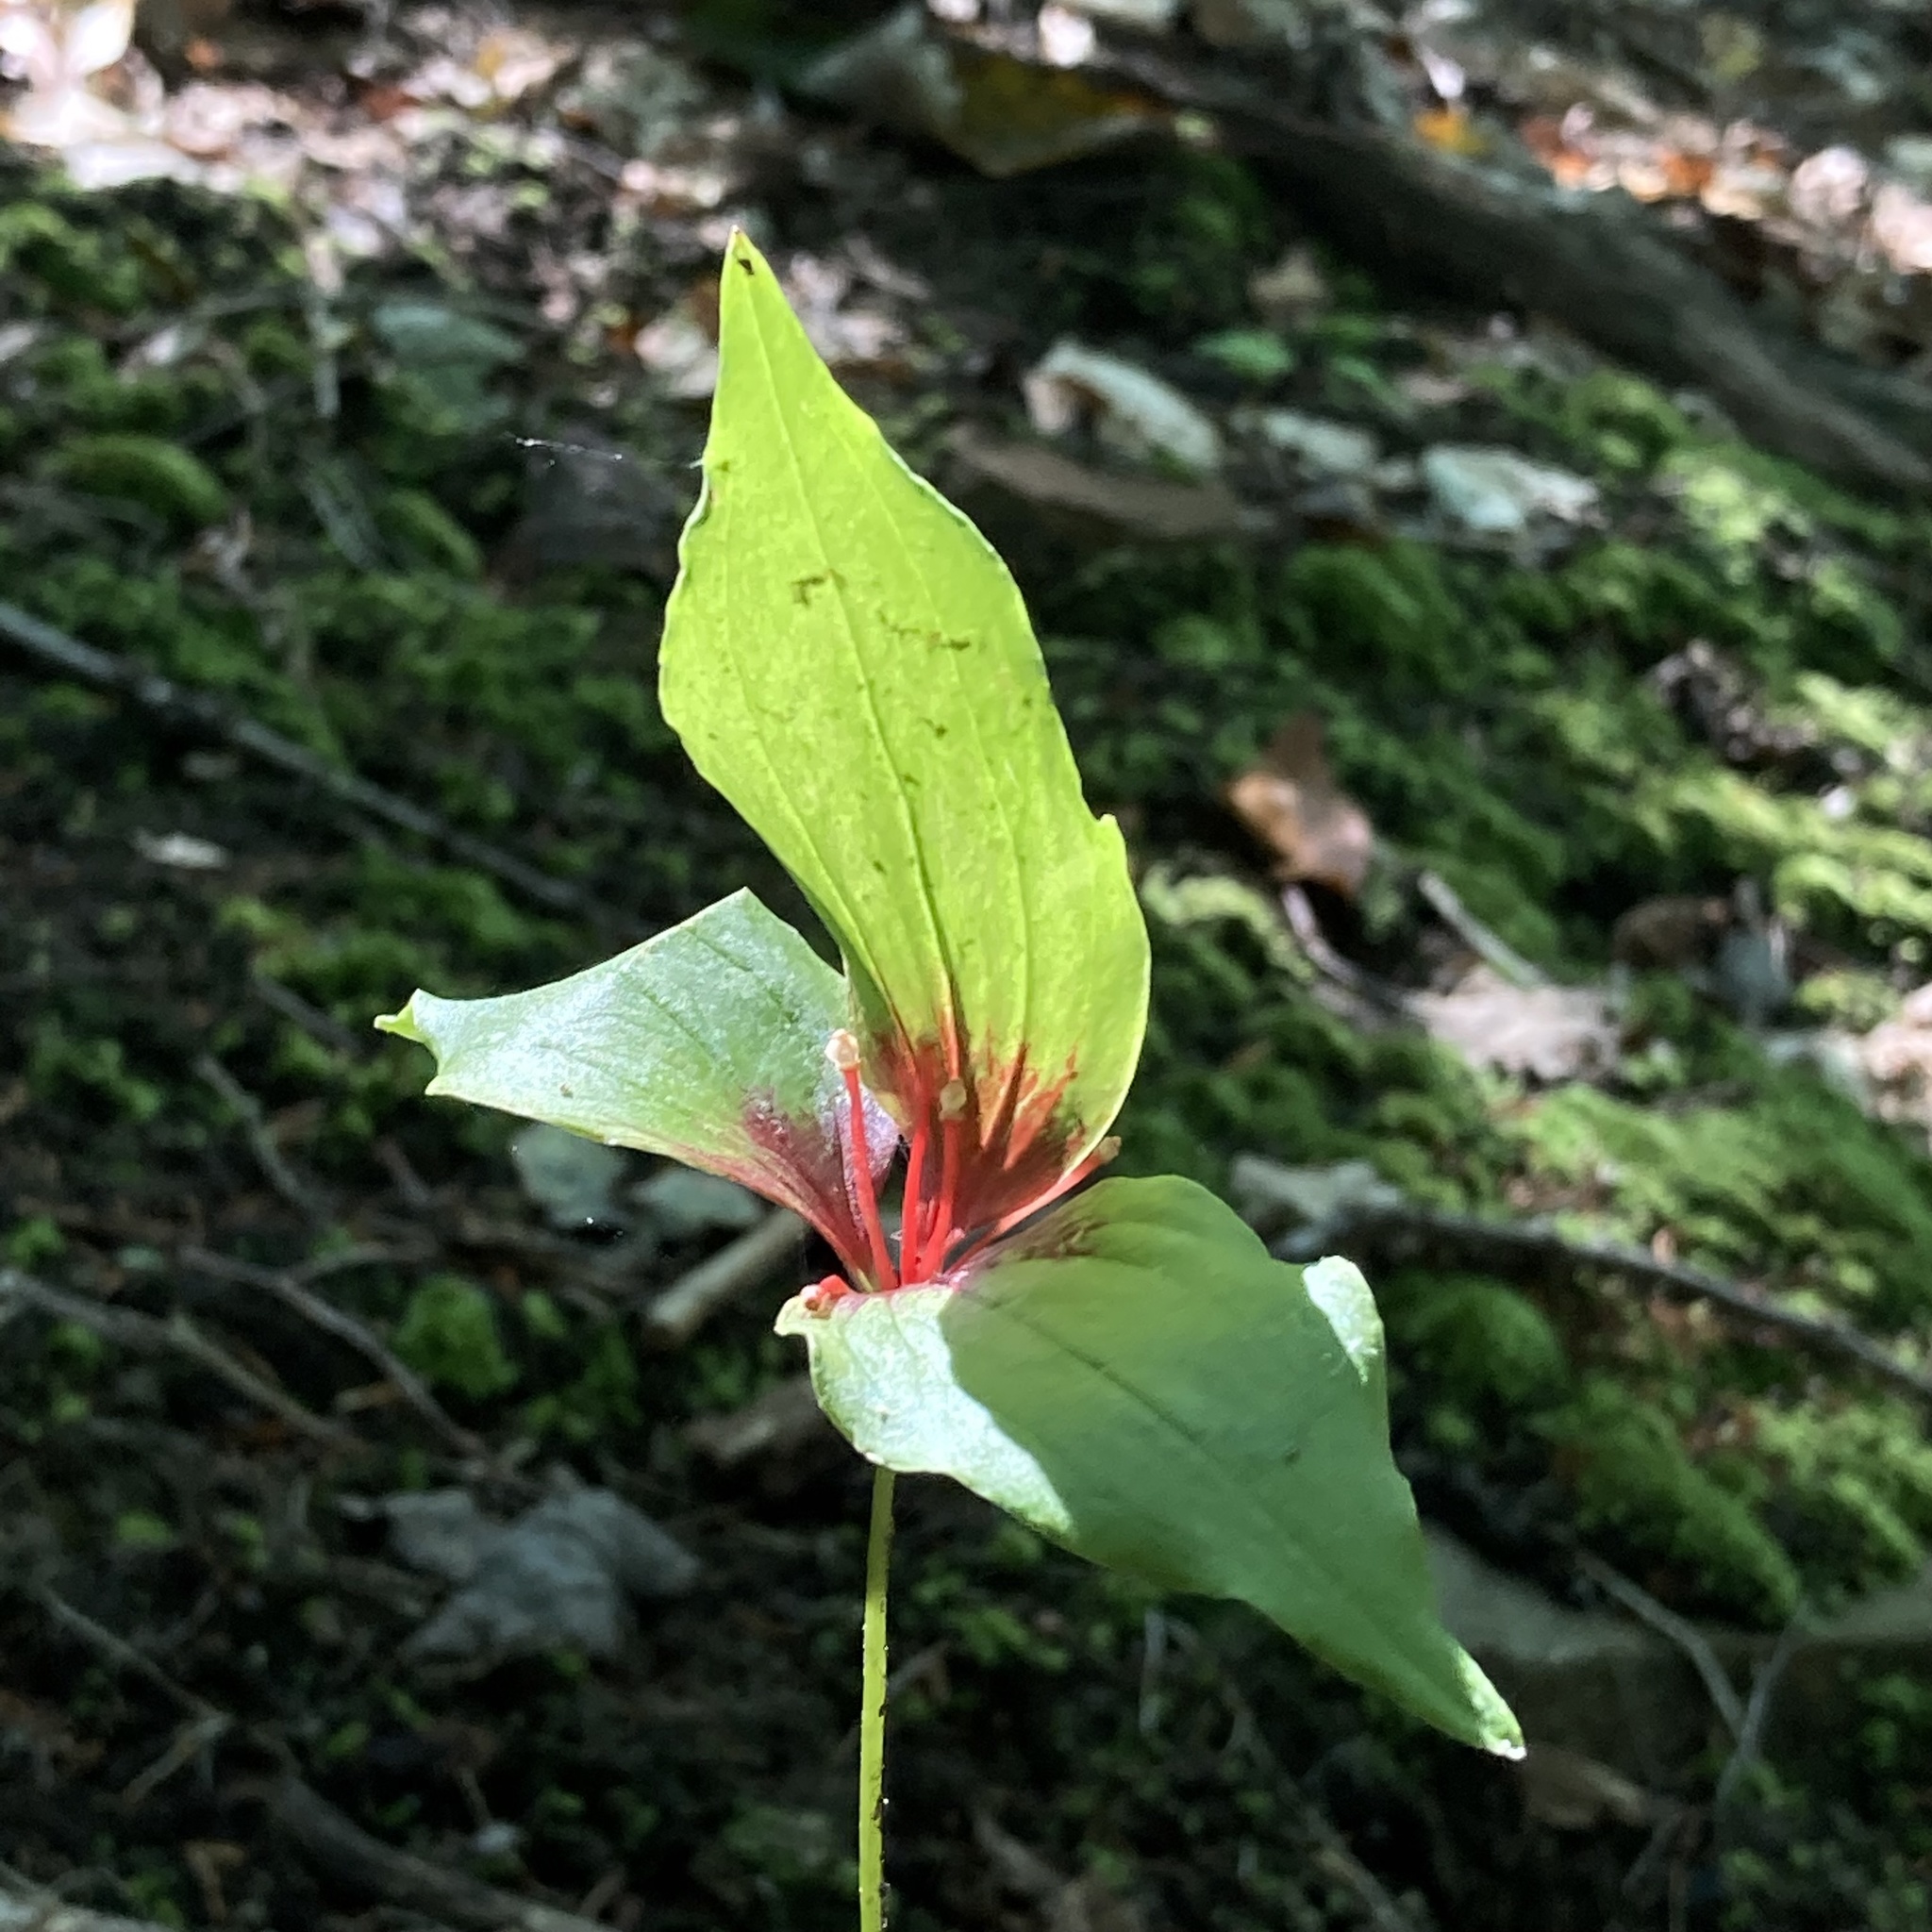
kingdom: Plantae
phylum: Tracheophyta
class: Liliopsida
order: Liliales
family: Liliaceae
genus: Medeola
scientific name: Medeola virginiana
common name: Indian cucumber-root
